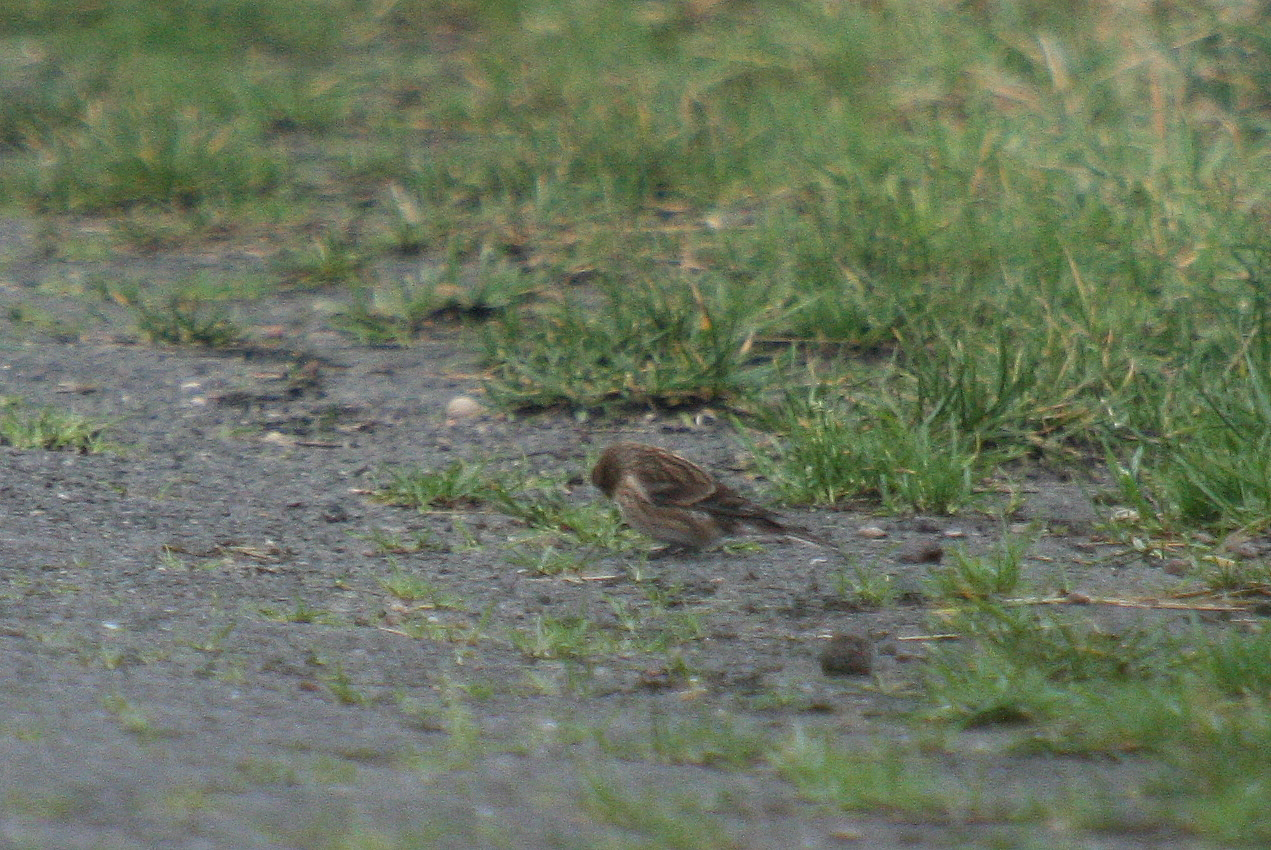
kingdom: Animalia
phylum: Chordata
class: Aves
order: Passeriformes
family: Fringillidae
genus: Linaria
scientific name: Linaria flavirostris
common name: Twite
